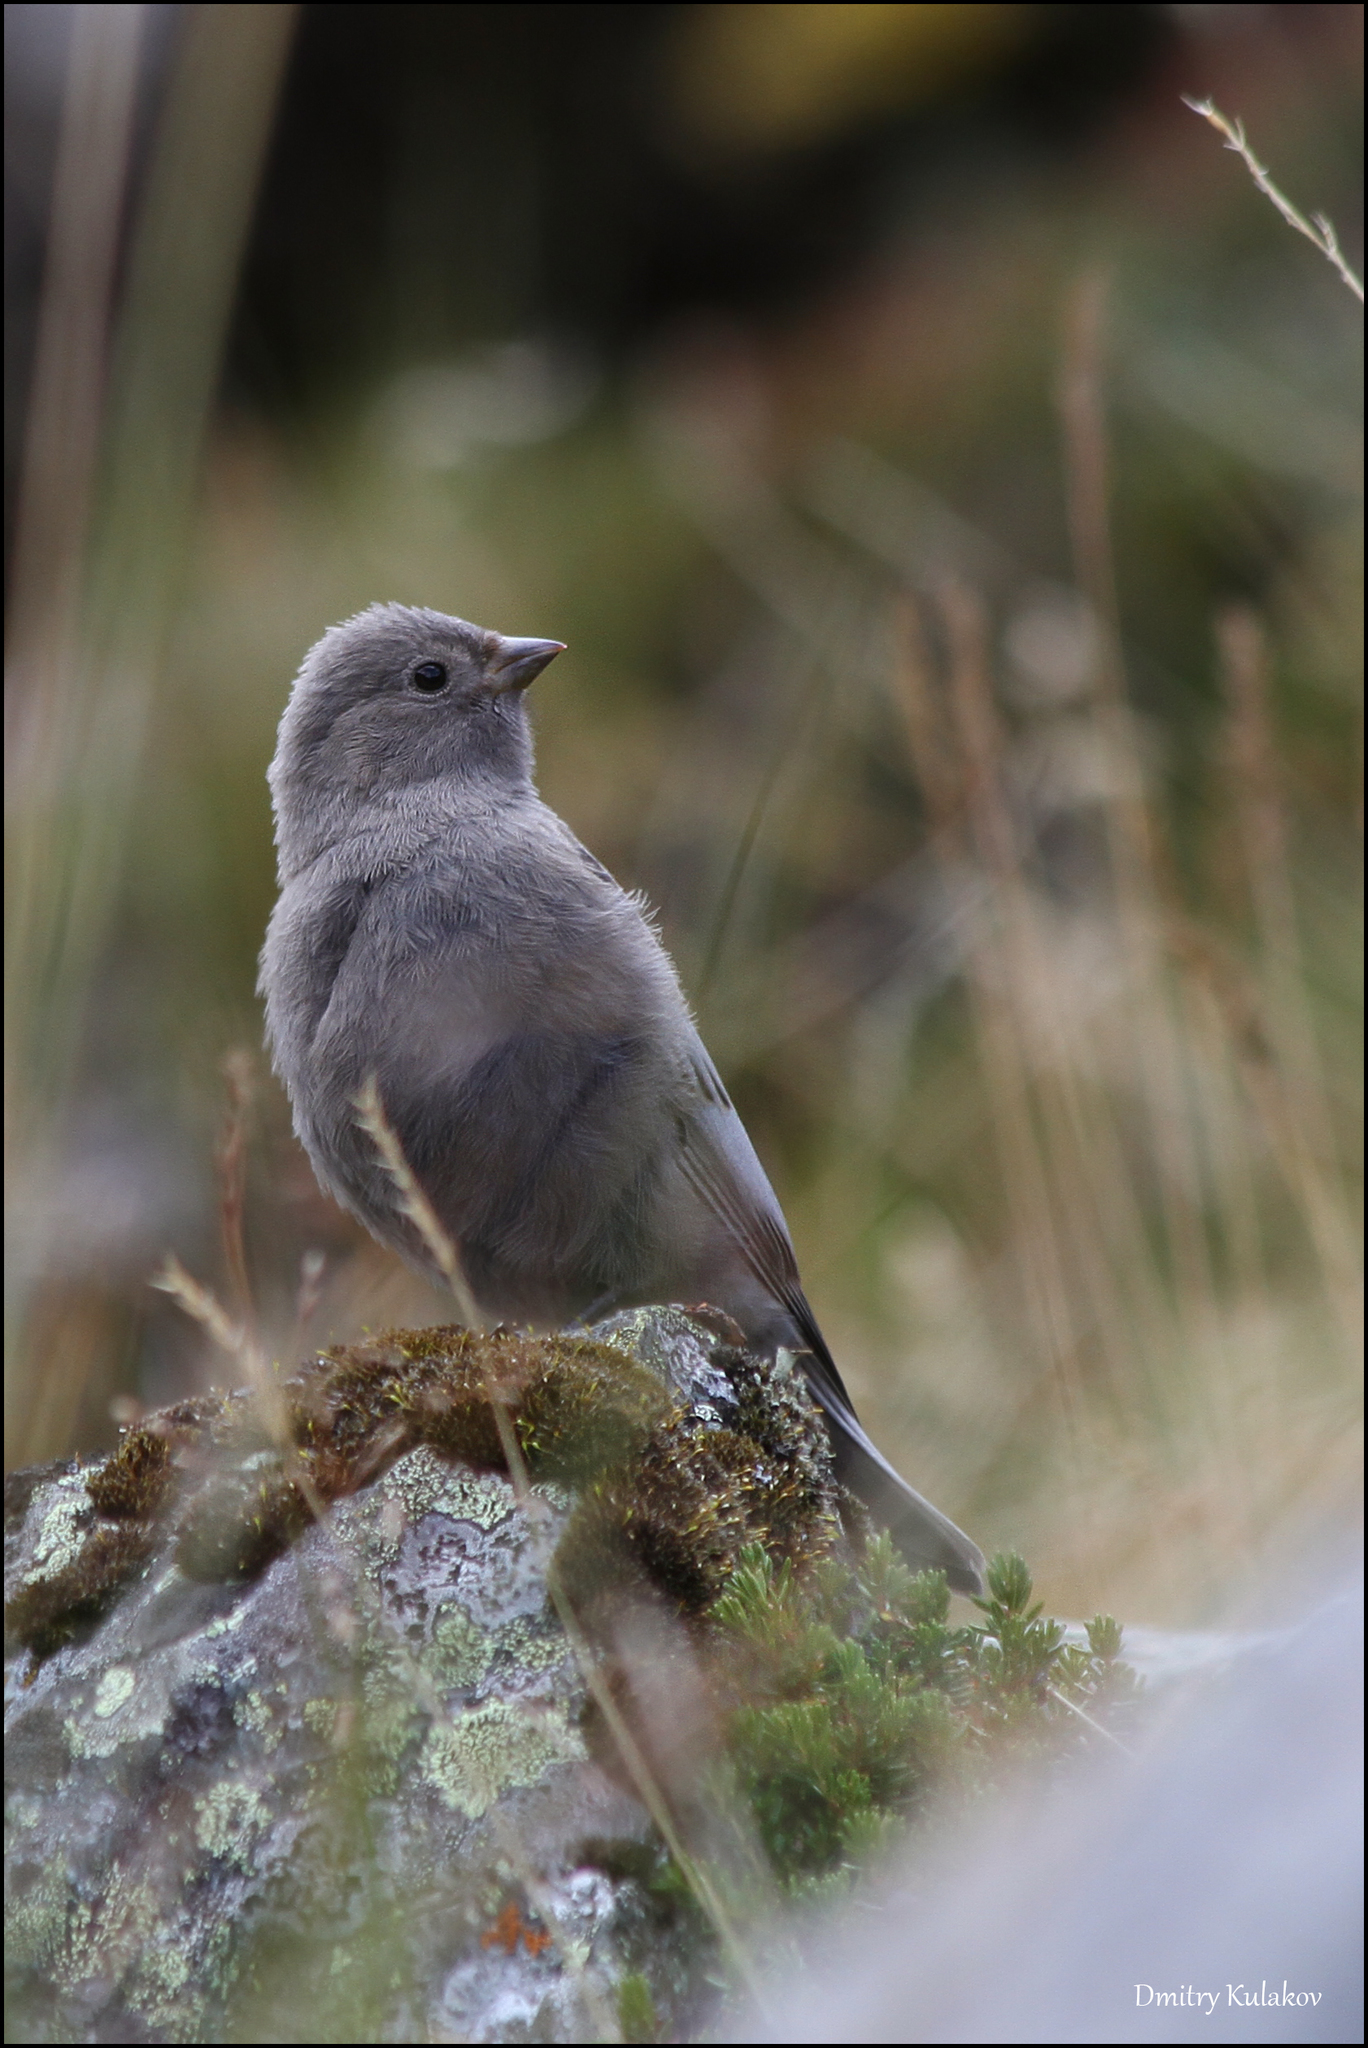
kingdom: Animalia
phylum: Chordata
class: Aves
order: Passeriformes
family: Fringillidae
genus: Leucosticte
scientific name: Leucosticte arctoa
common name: Asian rosy finch
